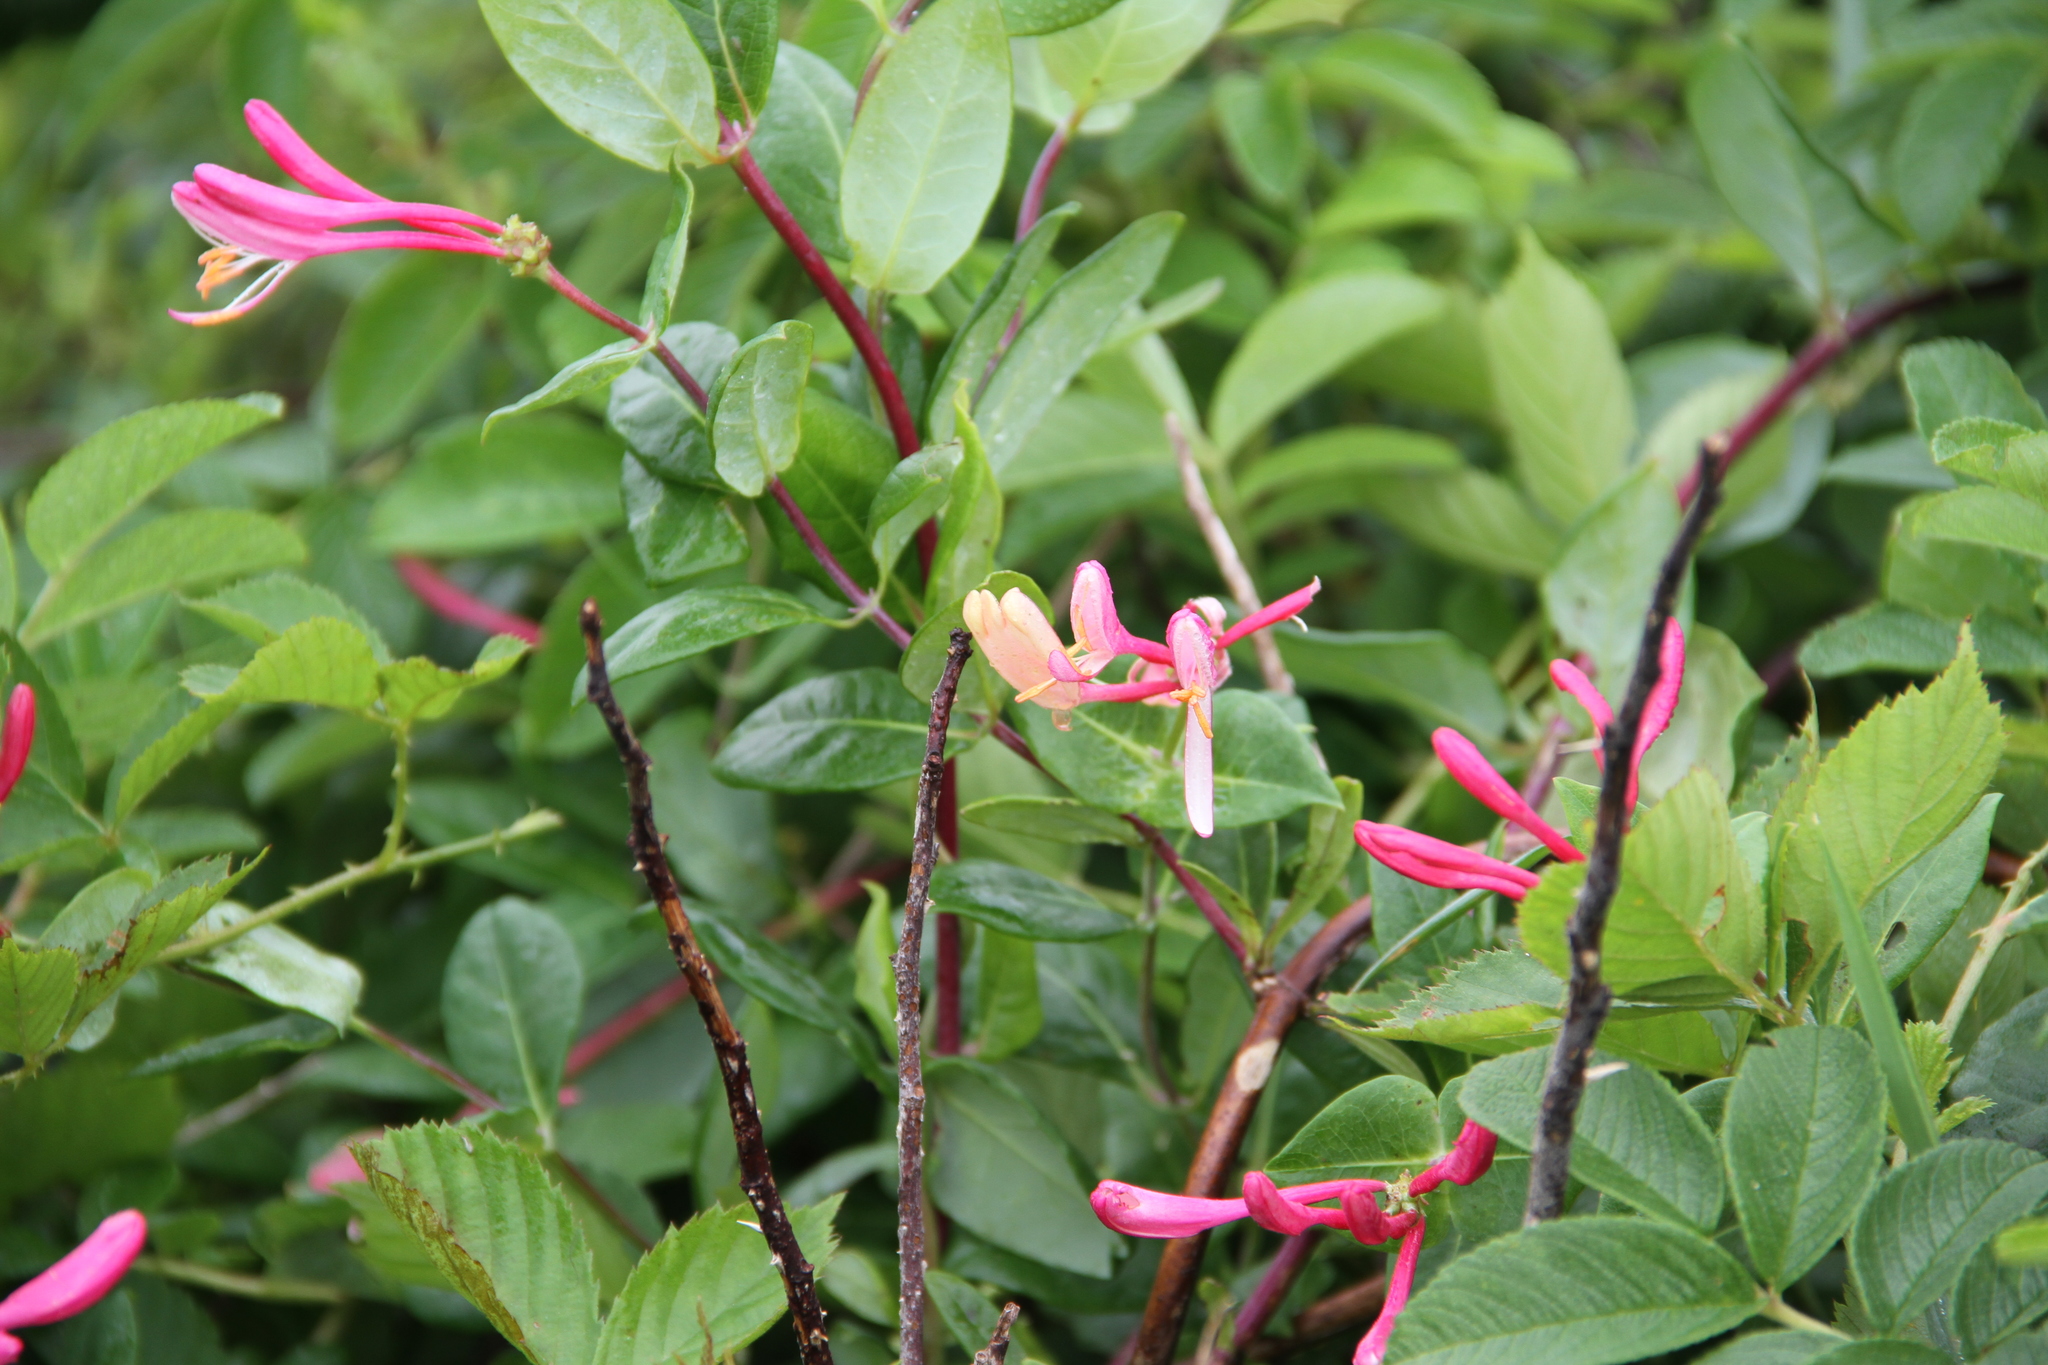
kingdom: Plantae
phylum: Tracheophyta
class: Magnoliopsida
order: Dipsacales
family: Caprifoliaceae
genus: Lonicera
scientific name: Lonicera japonica
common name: Japanese honeysuckle
